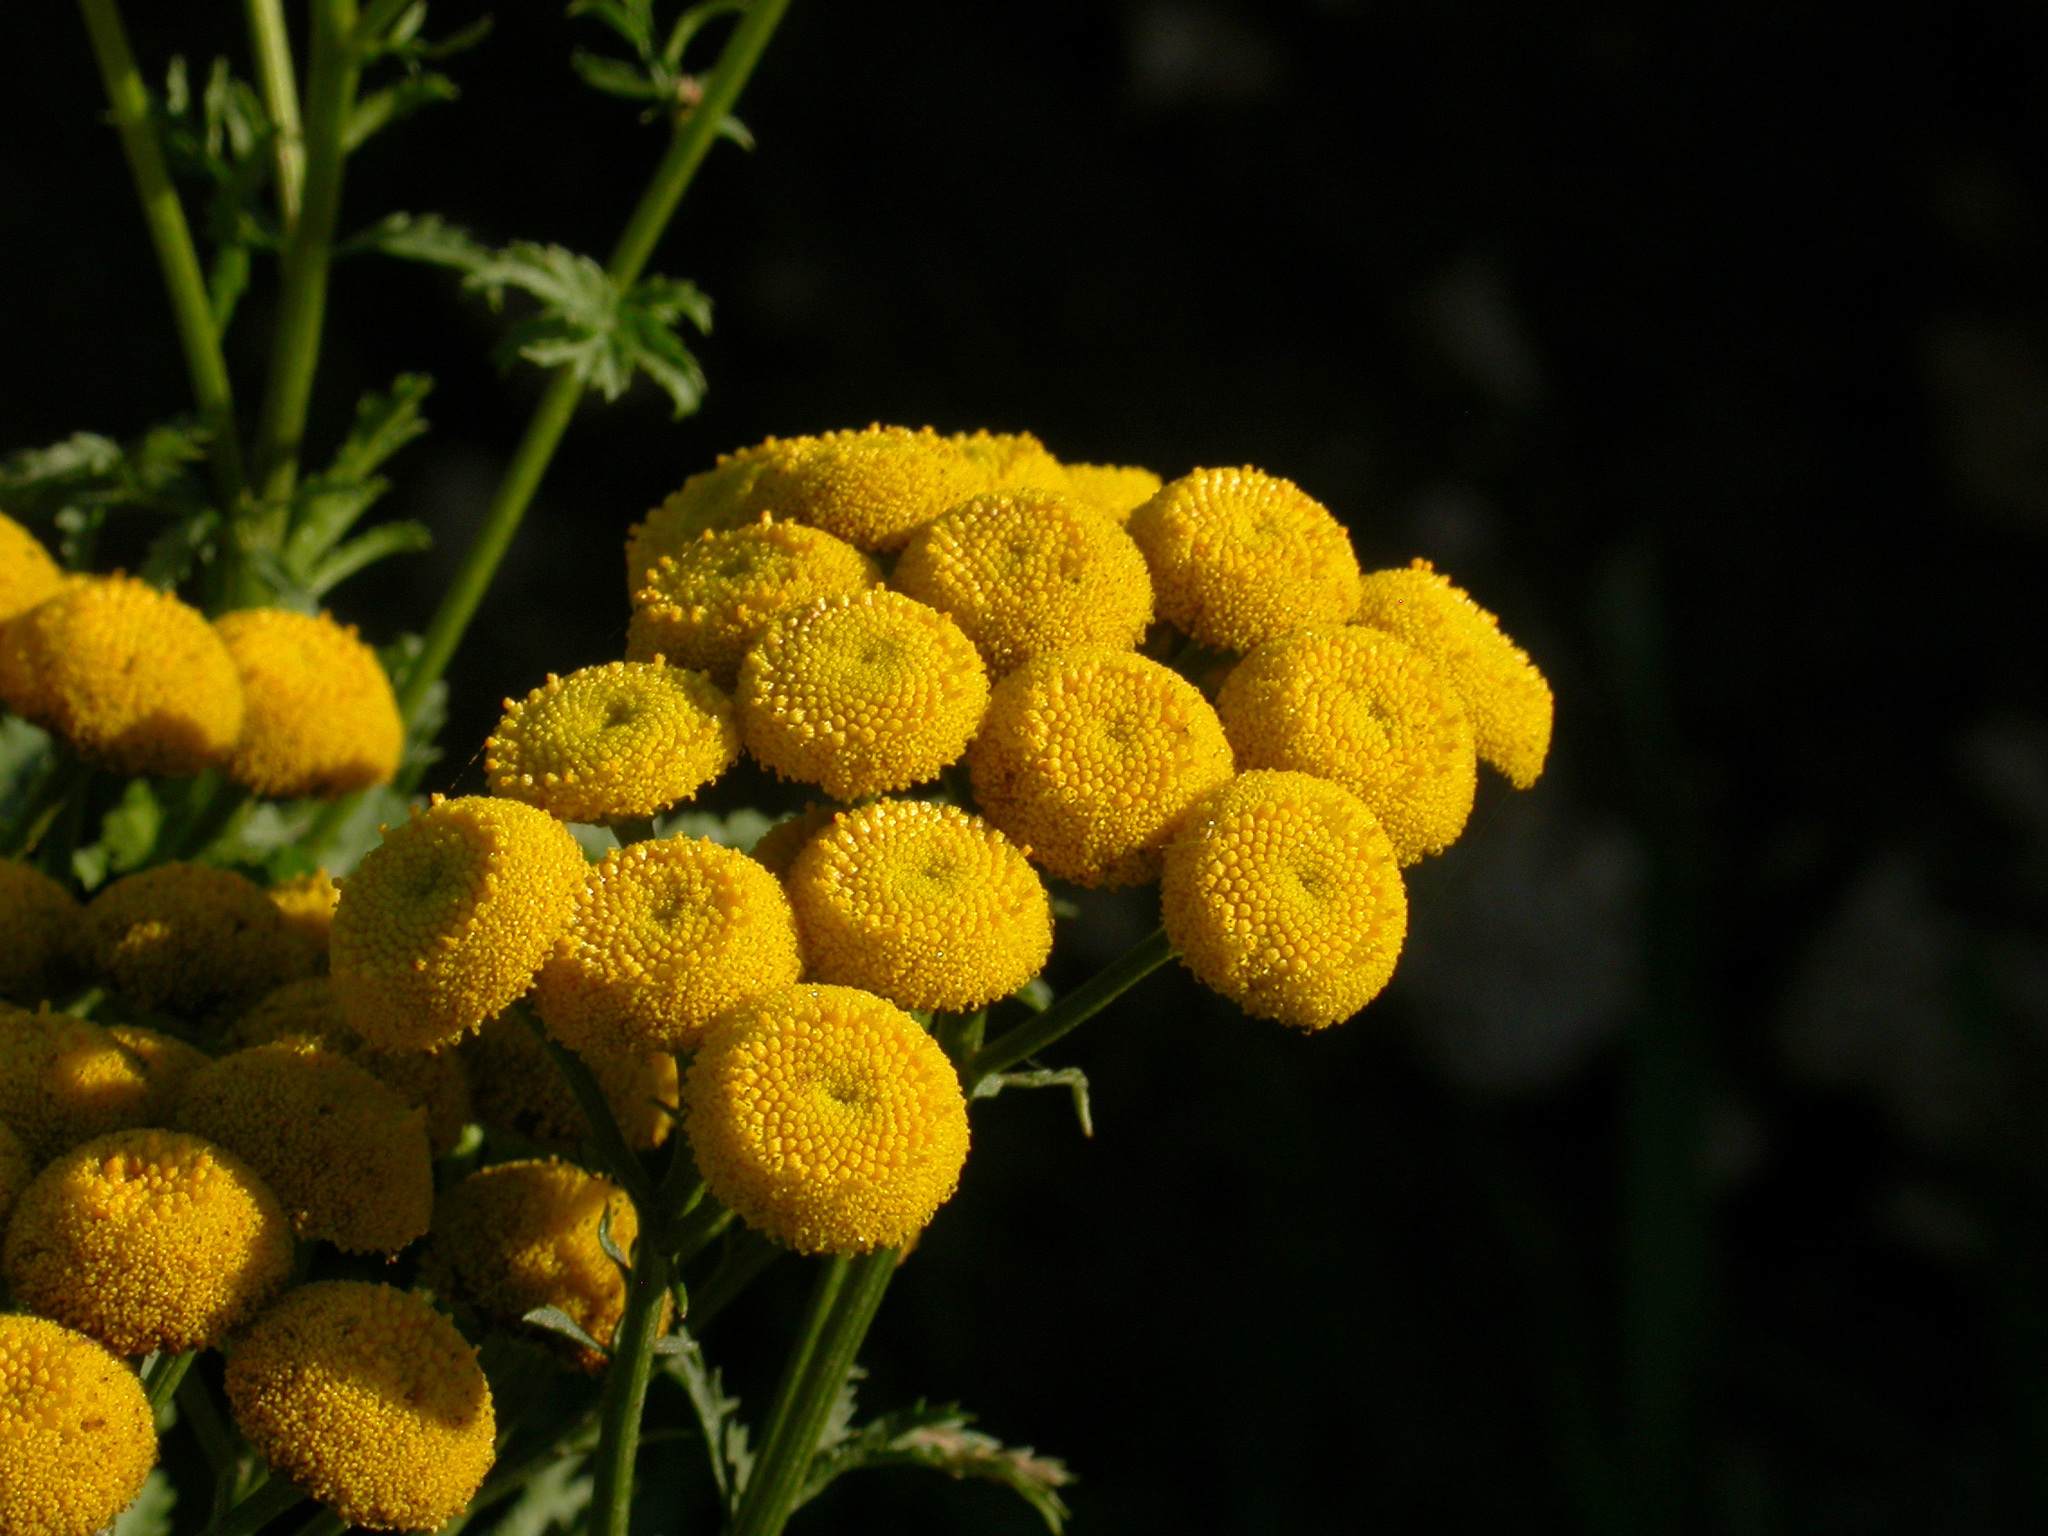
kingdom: Plantae
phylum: Tracheophyta
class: Magnoliopsida
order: Asterales
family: Asteraceae
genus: Tanacetum
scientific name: Tanacetum vulgare
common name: Common tansy
